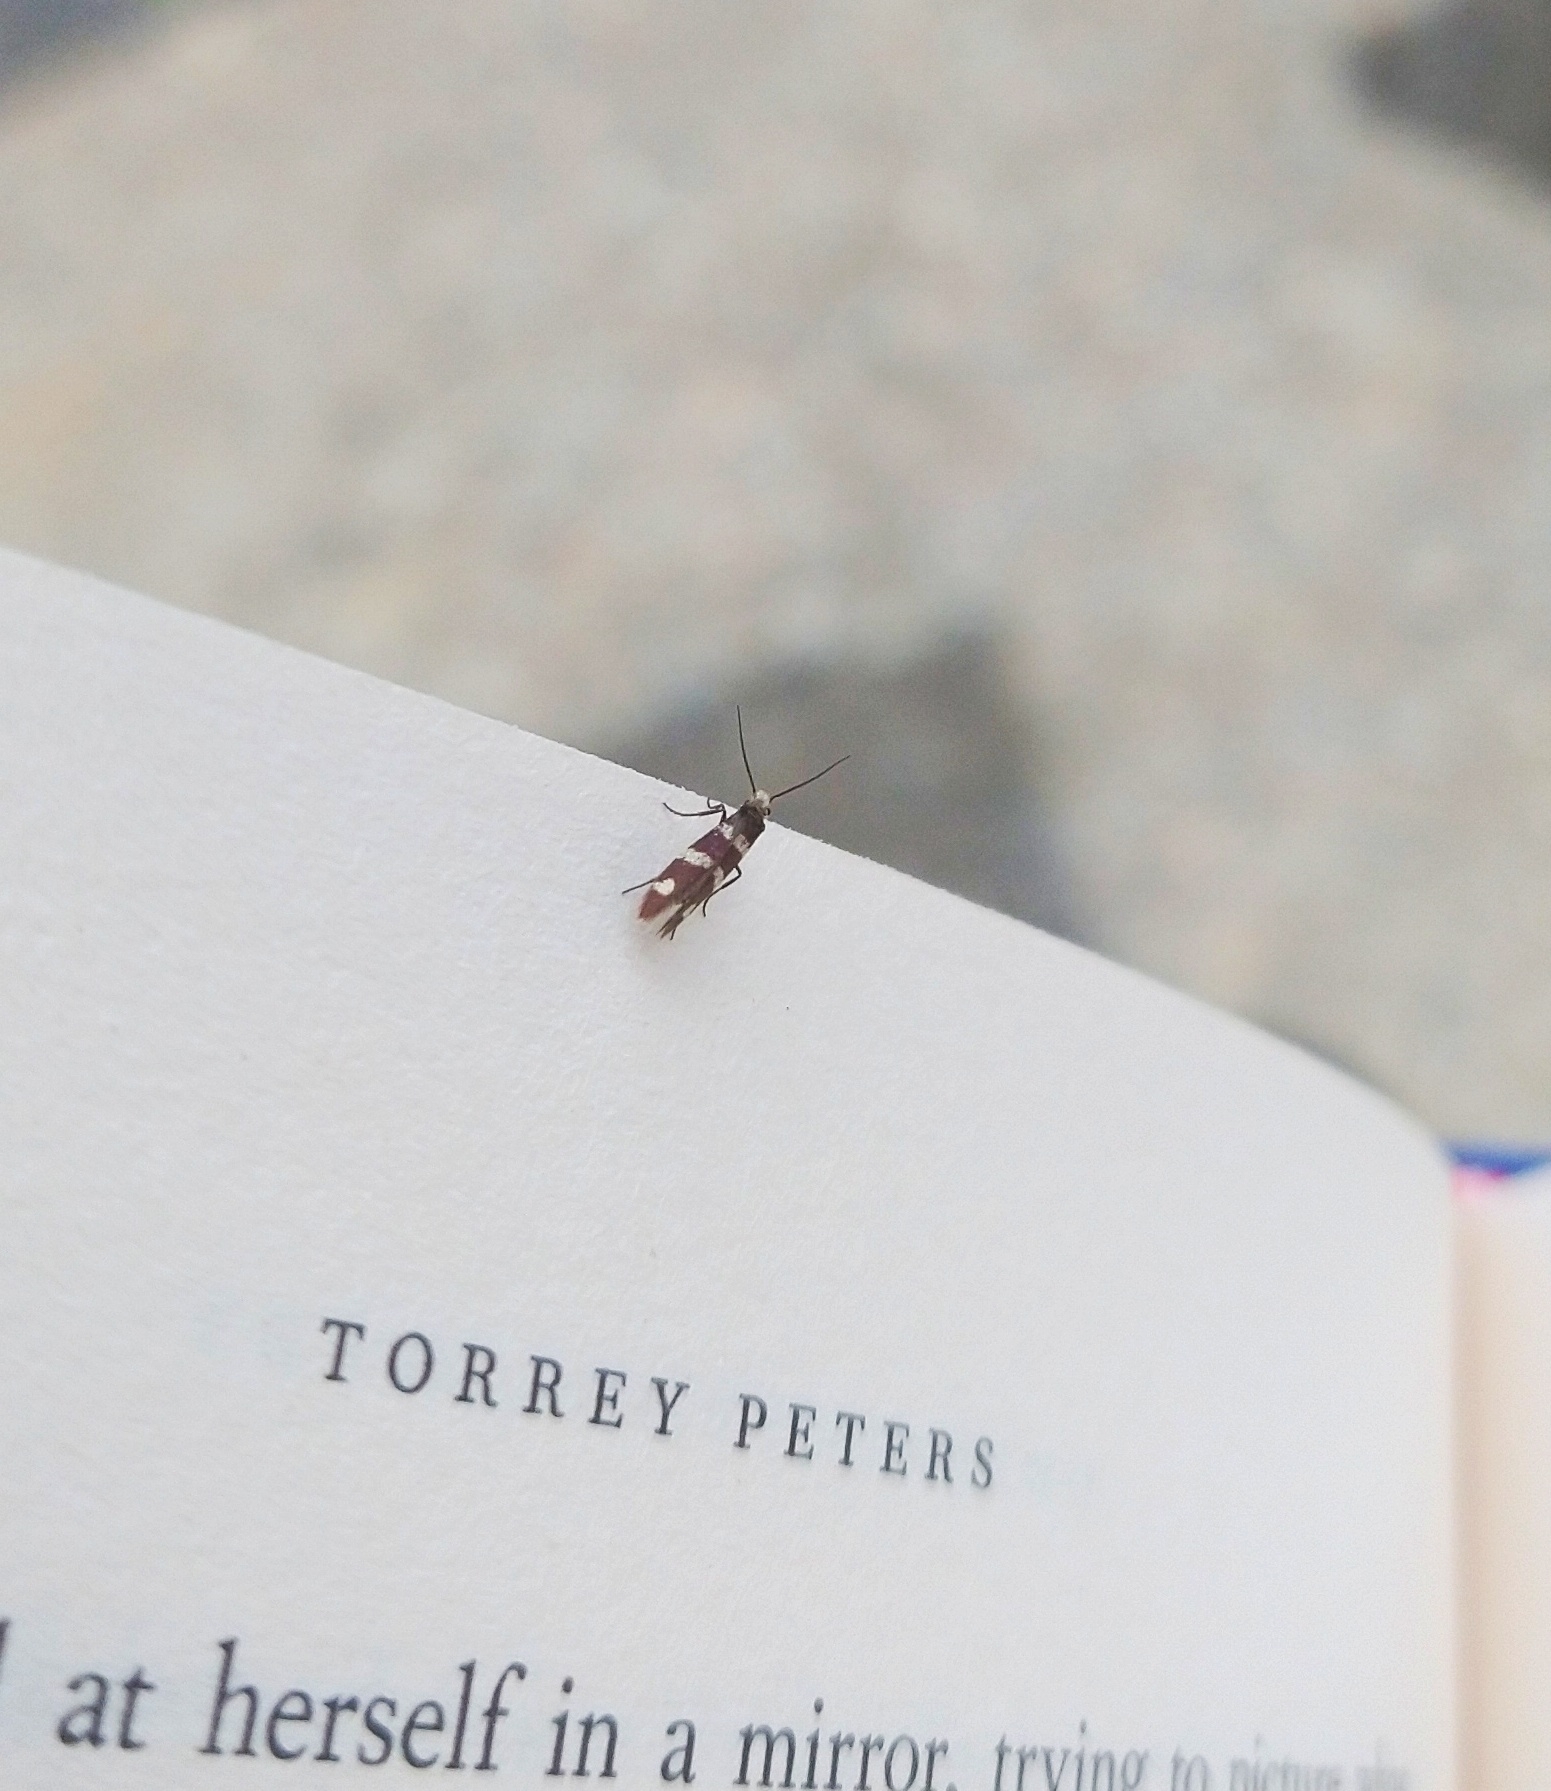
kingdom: Animalia
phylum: Arthropoda
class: Insecta
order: Lepidoptera
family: Micropterigidae
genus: Micropterix
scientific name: Micropterix aureatella
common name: Yellow-barred gold
